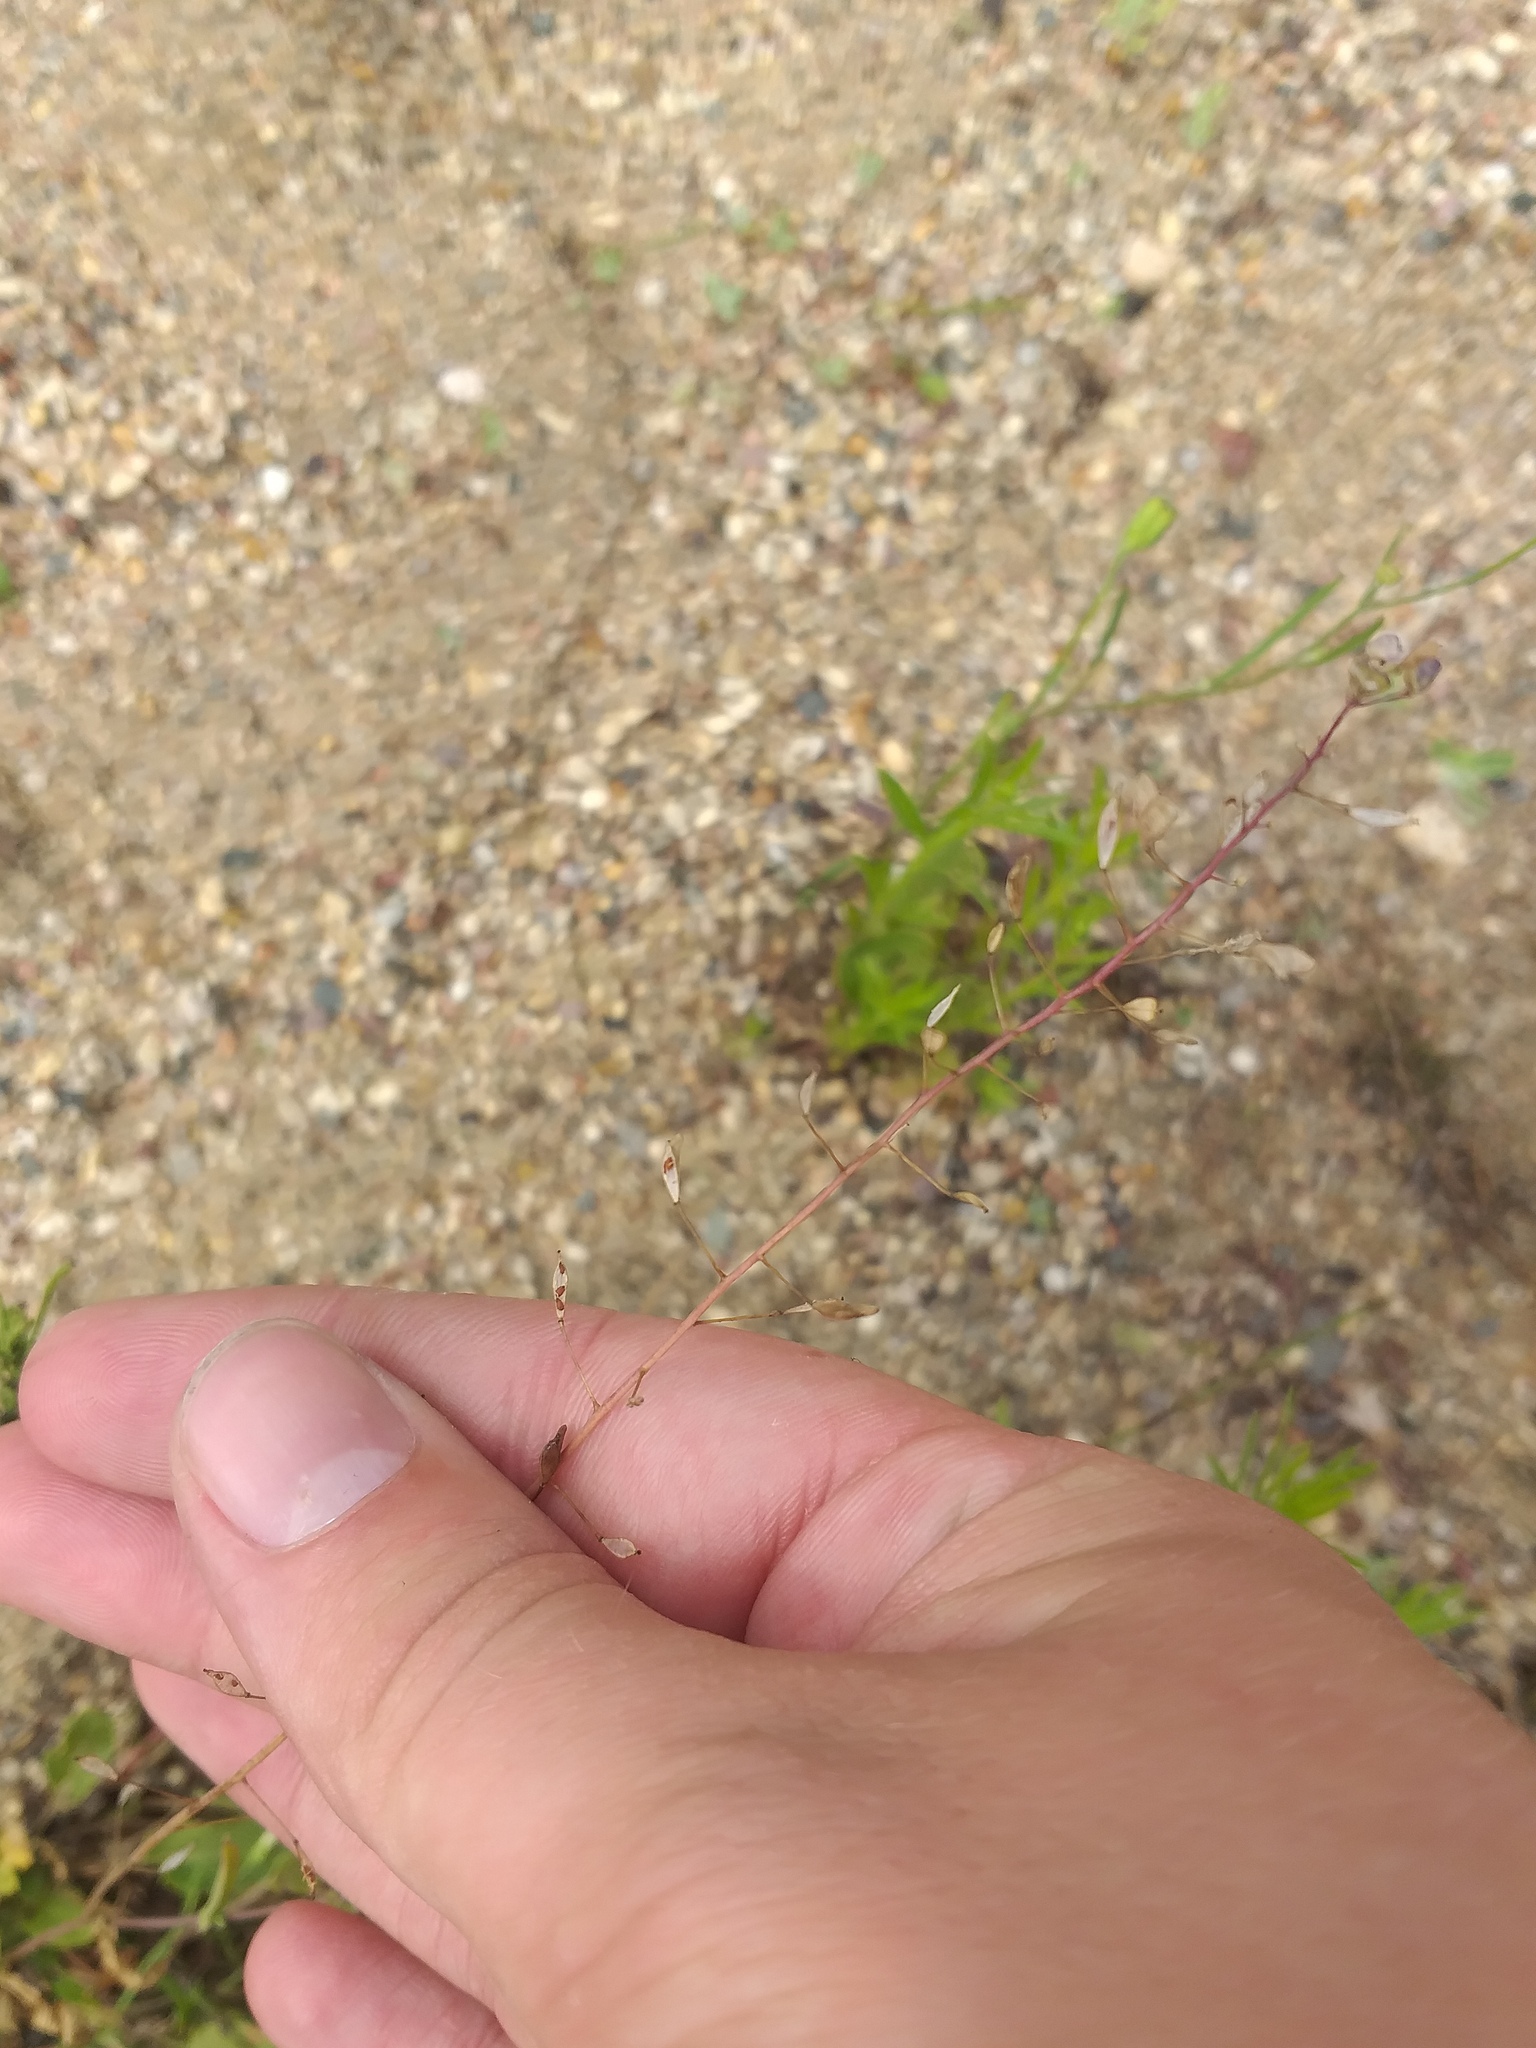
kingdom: Plantae
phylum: Tracheophyta
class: Magnoliopsida
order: Brassicales
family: Brassicaceae
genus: Capsella
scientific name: Capsella bursa-pastoris
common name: Shepherd's purse
